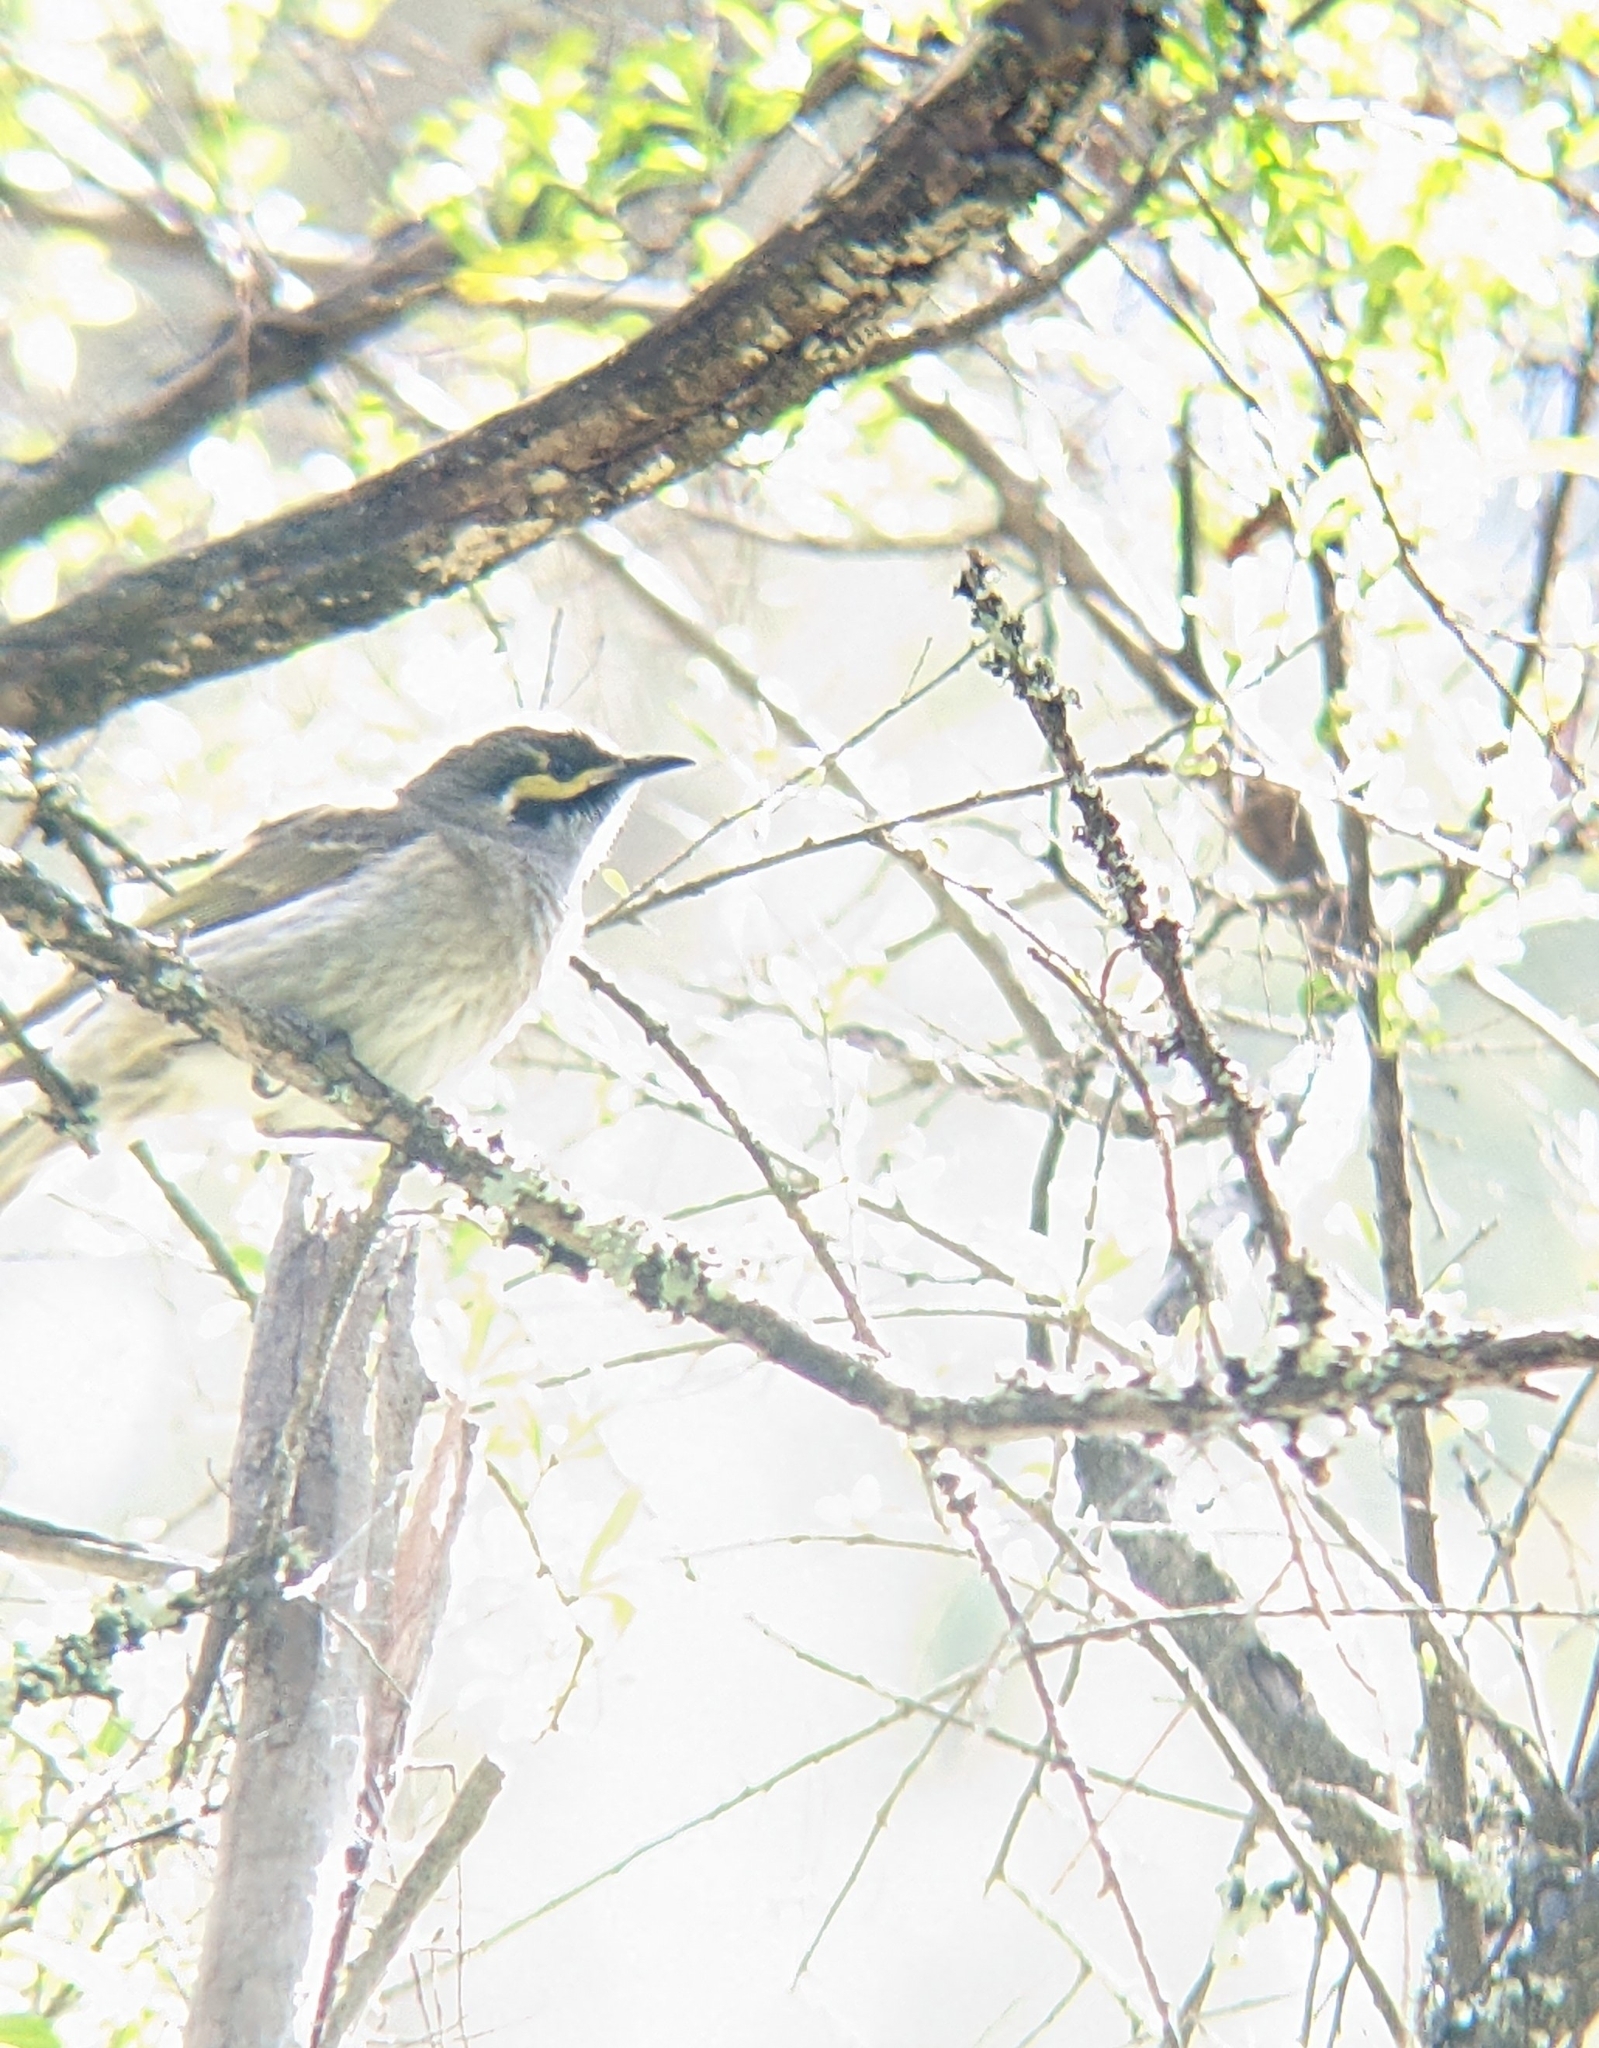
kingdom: Animalia
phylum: Chordata
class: Aves
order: Passeriformes
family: Meliphagidae
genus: Caligavis
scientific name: Caligavis chrysops
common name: Yellow-faced honeyeater
